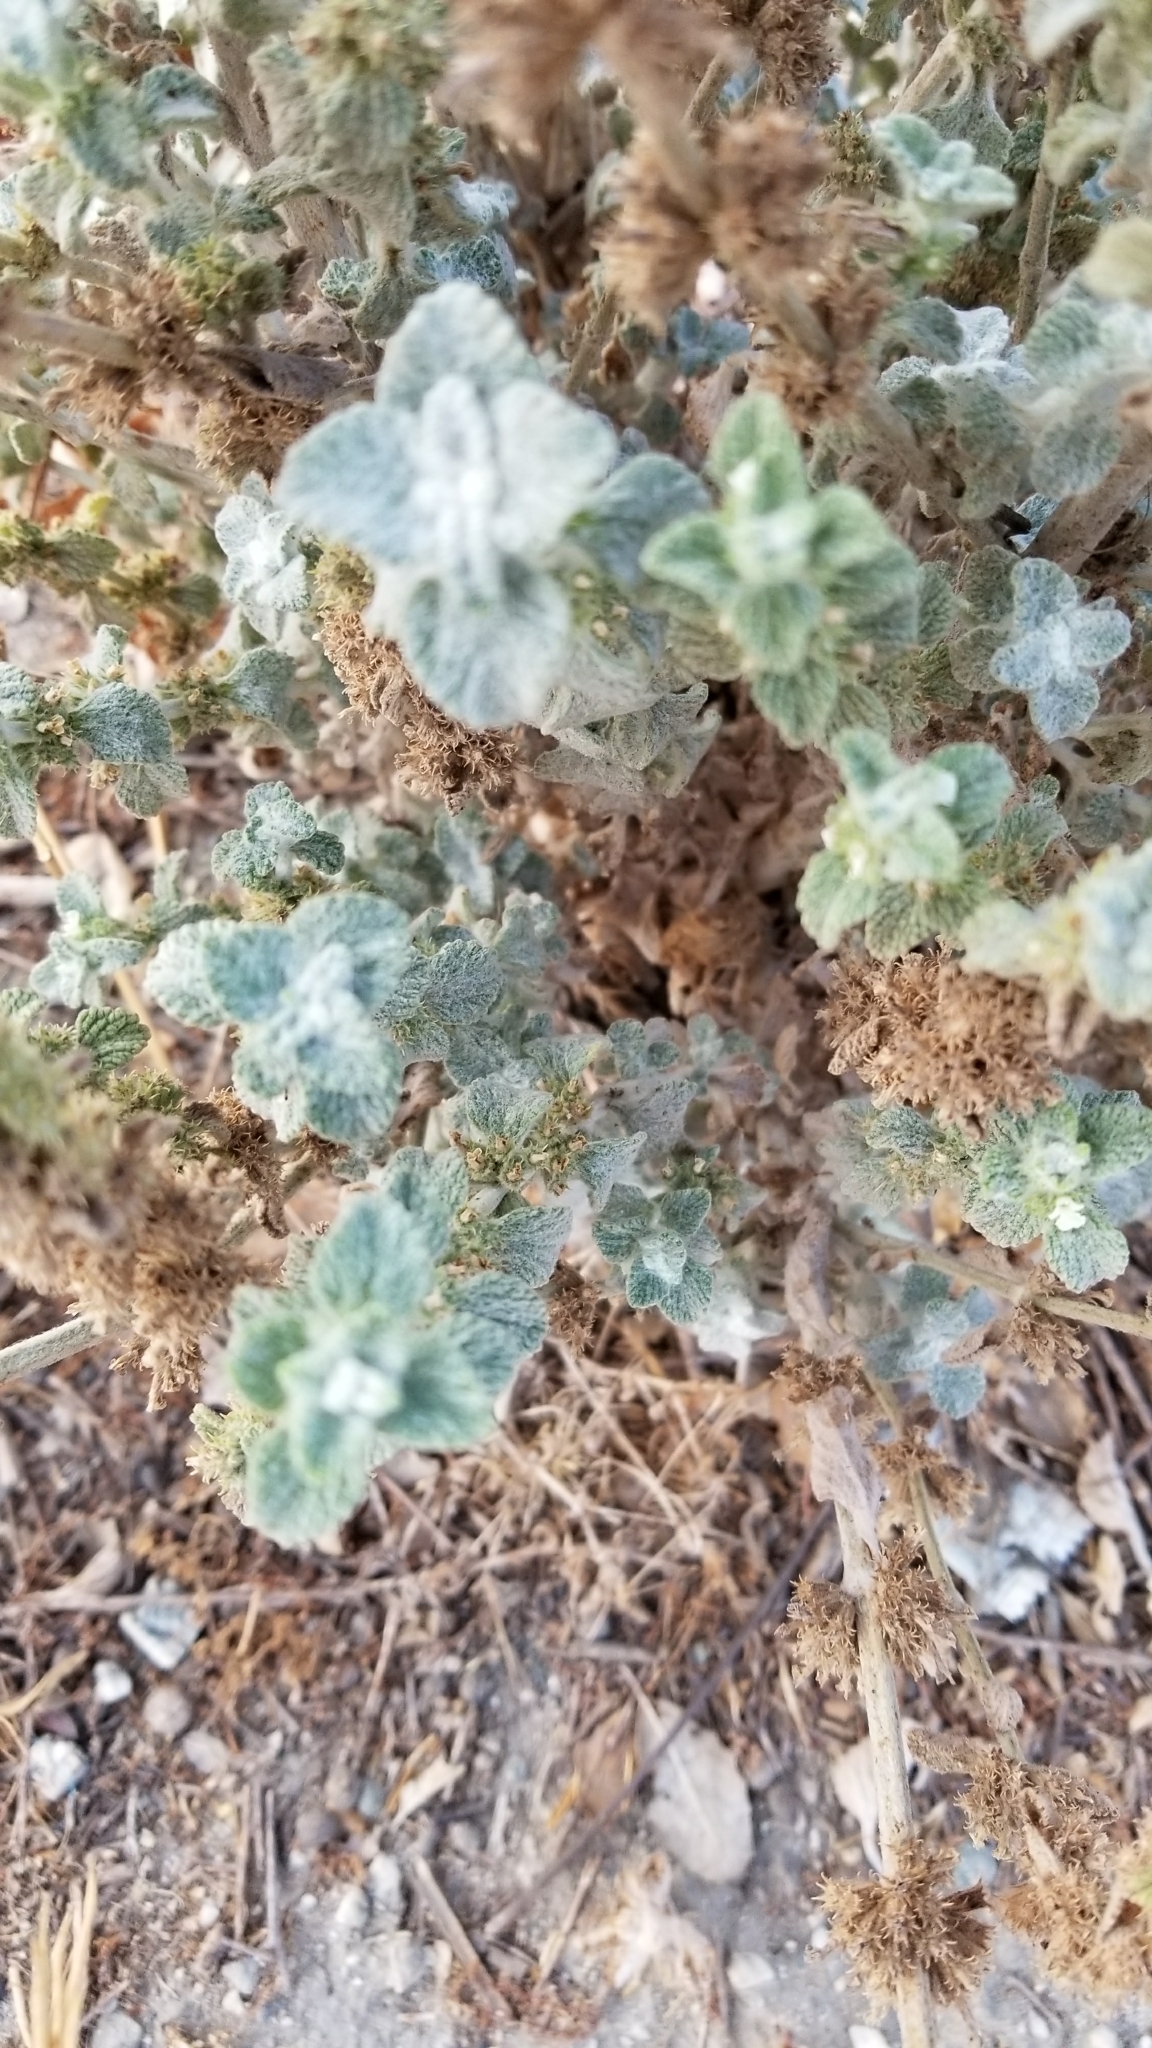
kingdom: Plantae
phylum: Tracheophyta
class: Magnoliopsida
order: Lamiales
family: Lamiaceae
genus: Marrubium
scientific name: Marrubium vulgare
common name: Horehound
